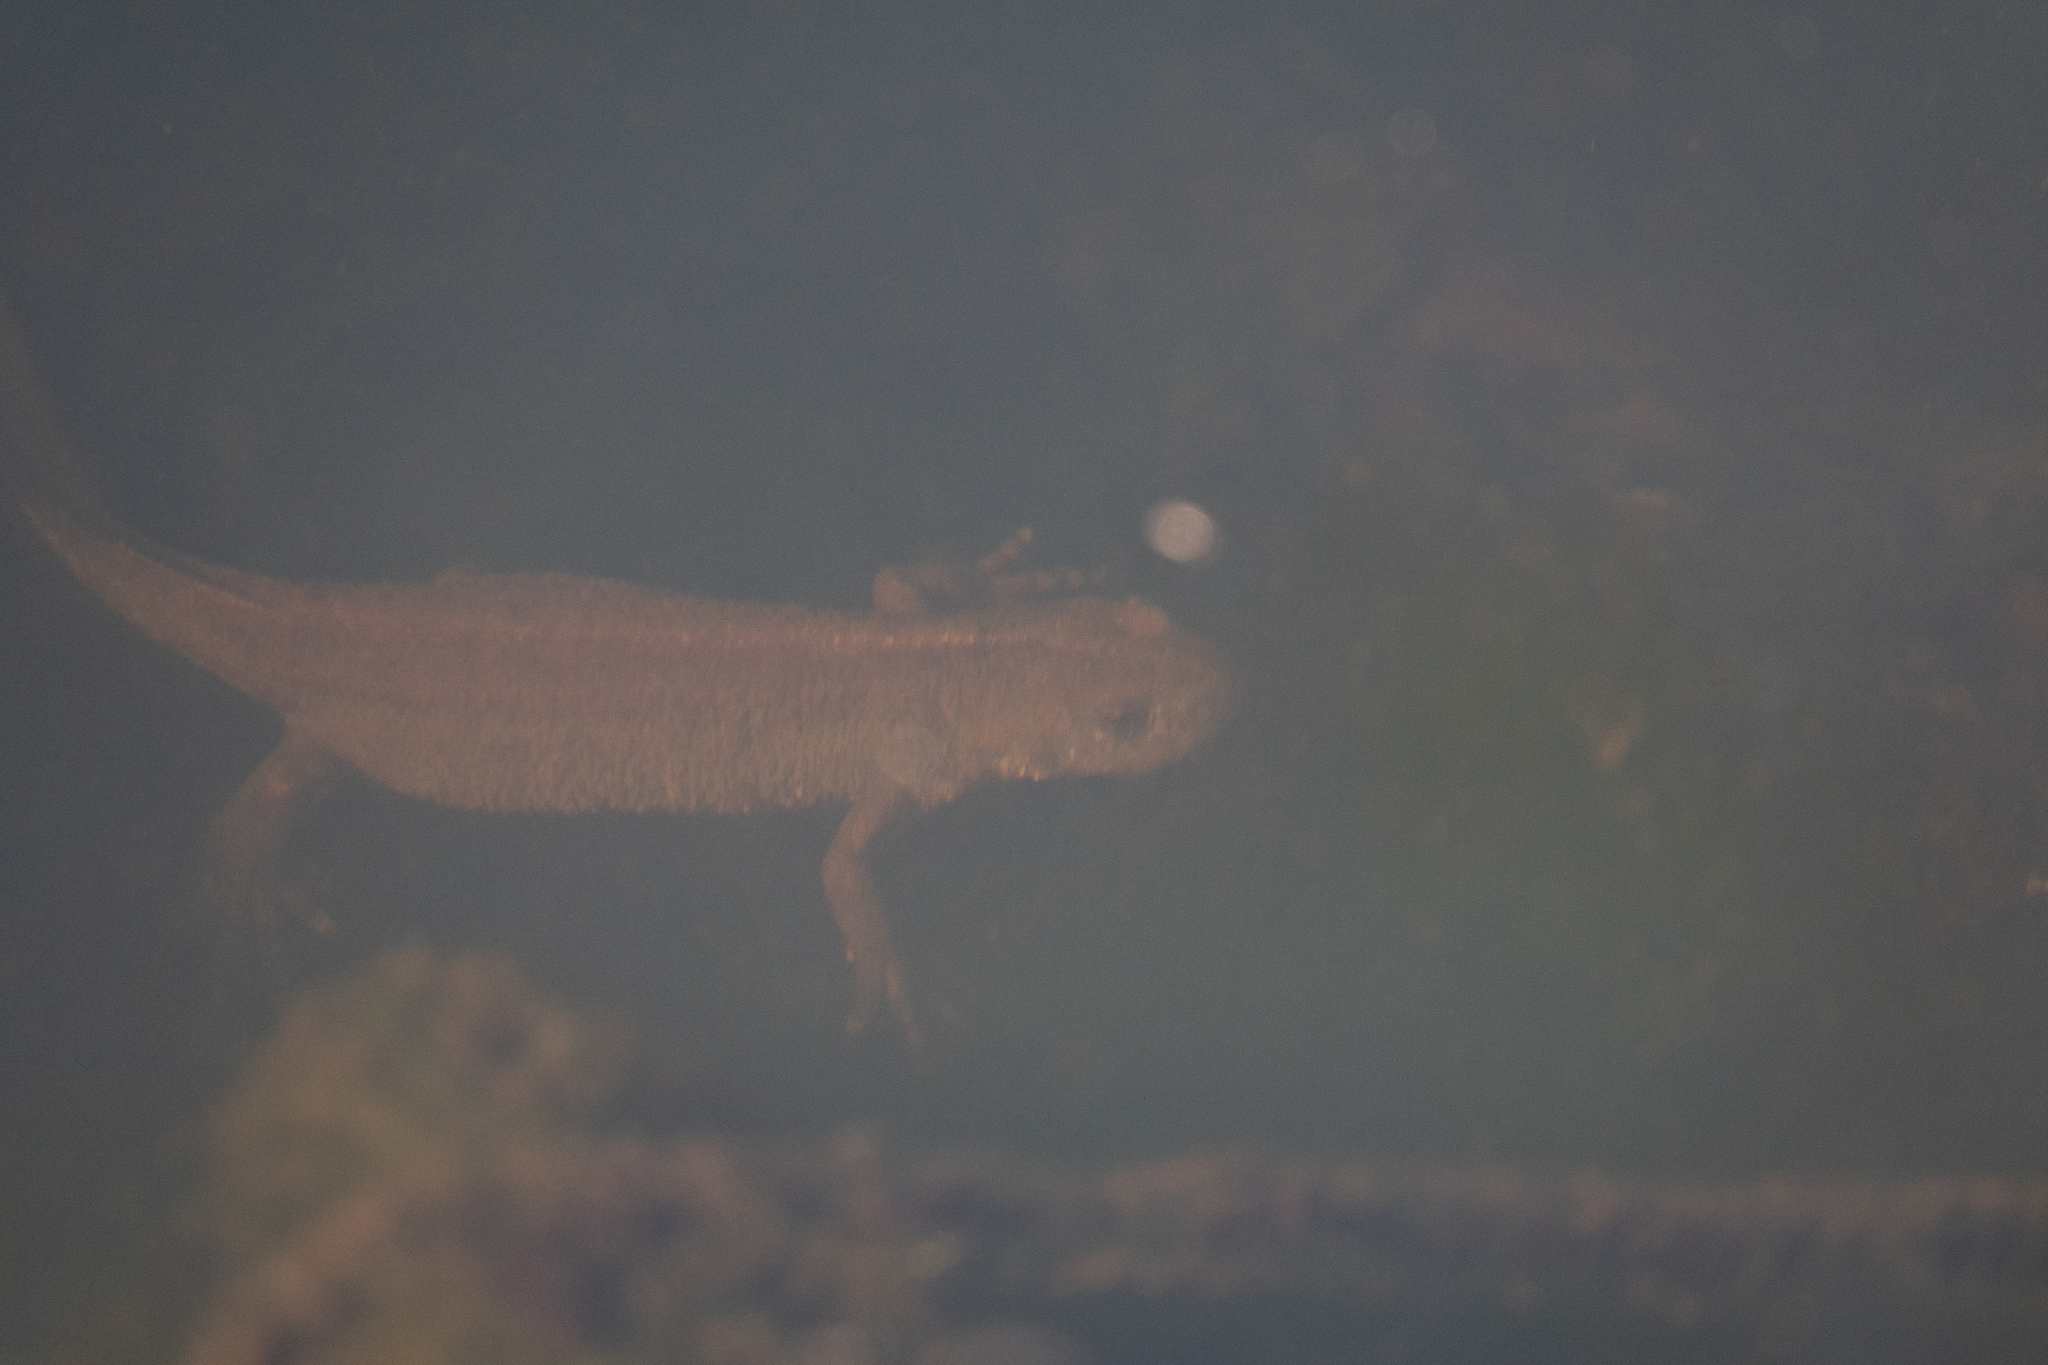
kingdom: Animalia
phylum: Chordata
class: Amphibia
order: Caudata
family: Salamandridae
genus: Triturus
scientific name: Triturus carnifex
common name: Italian crested newt
